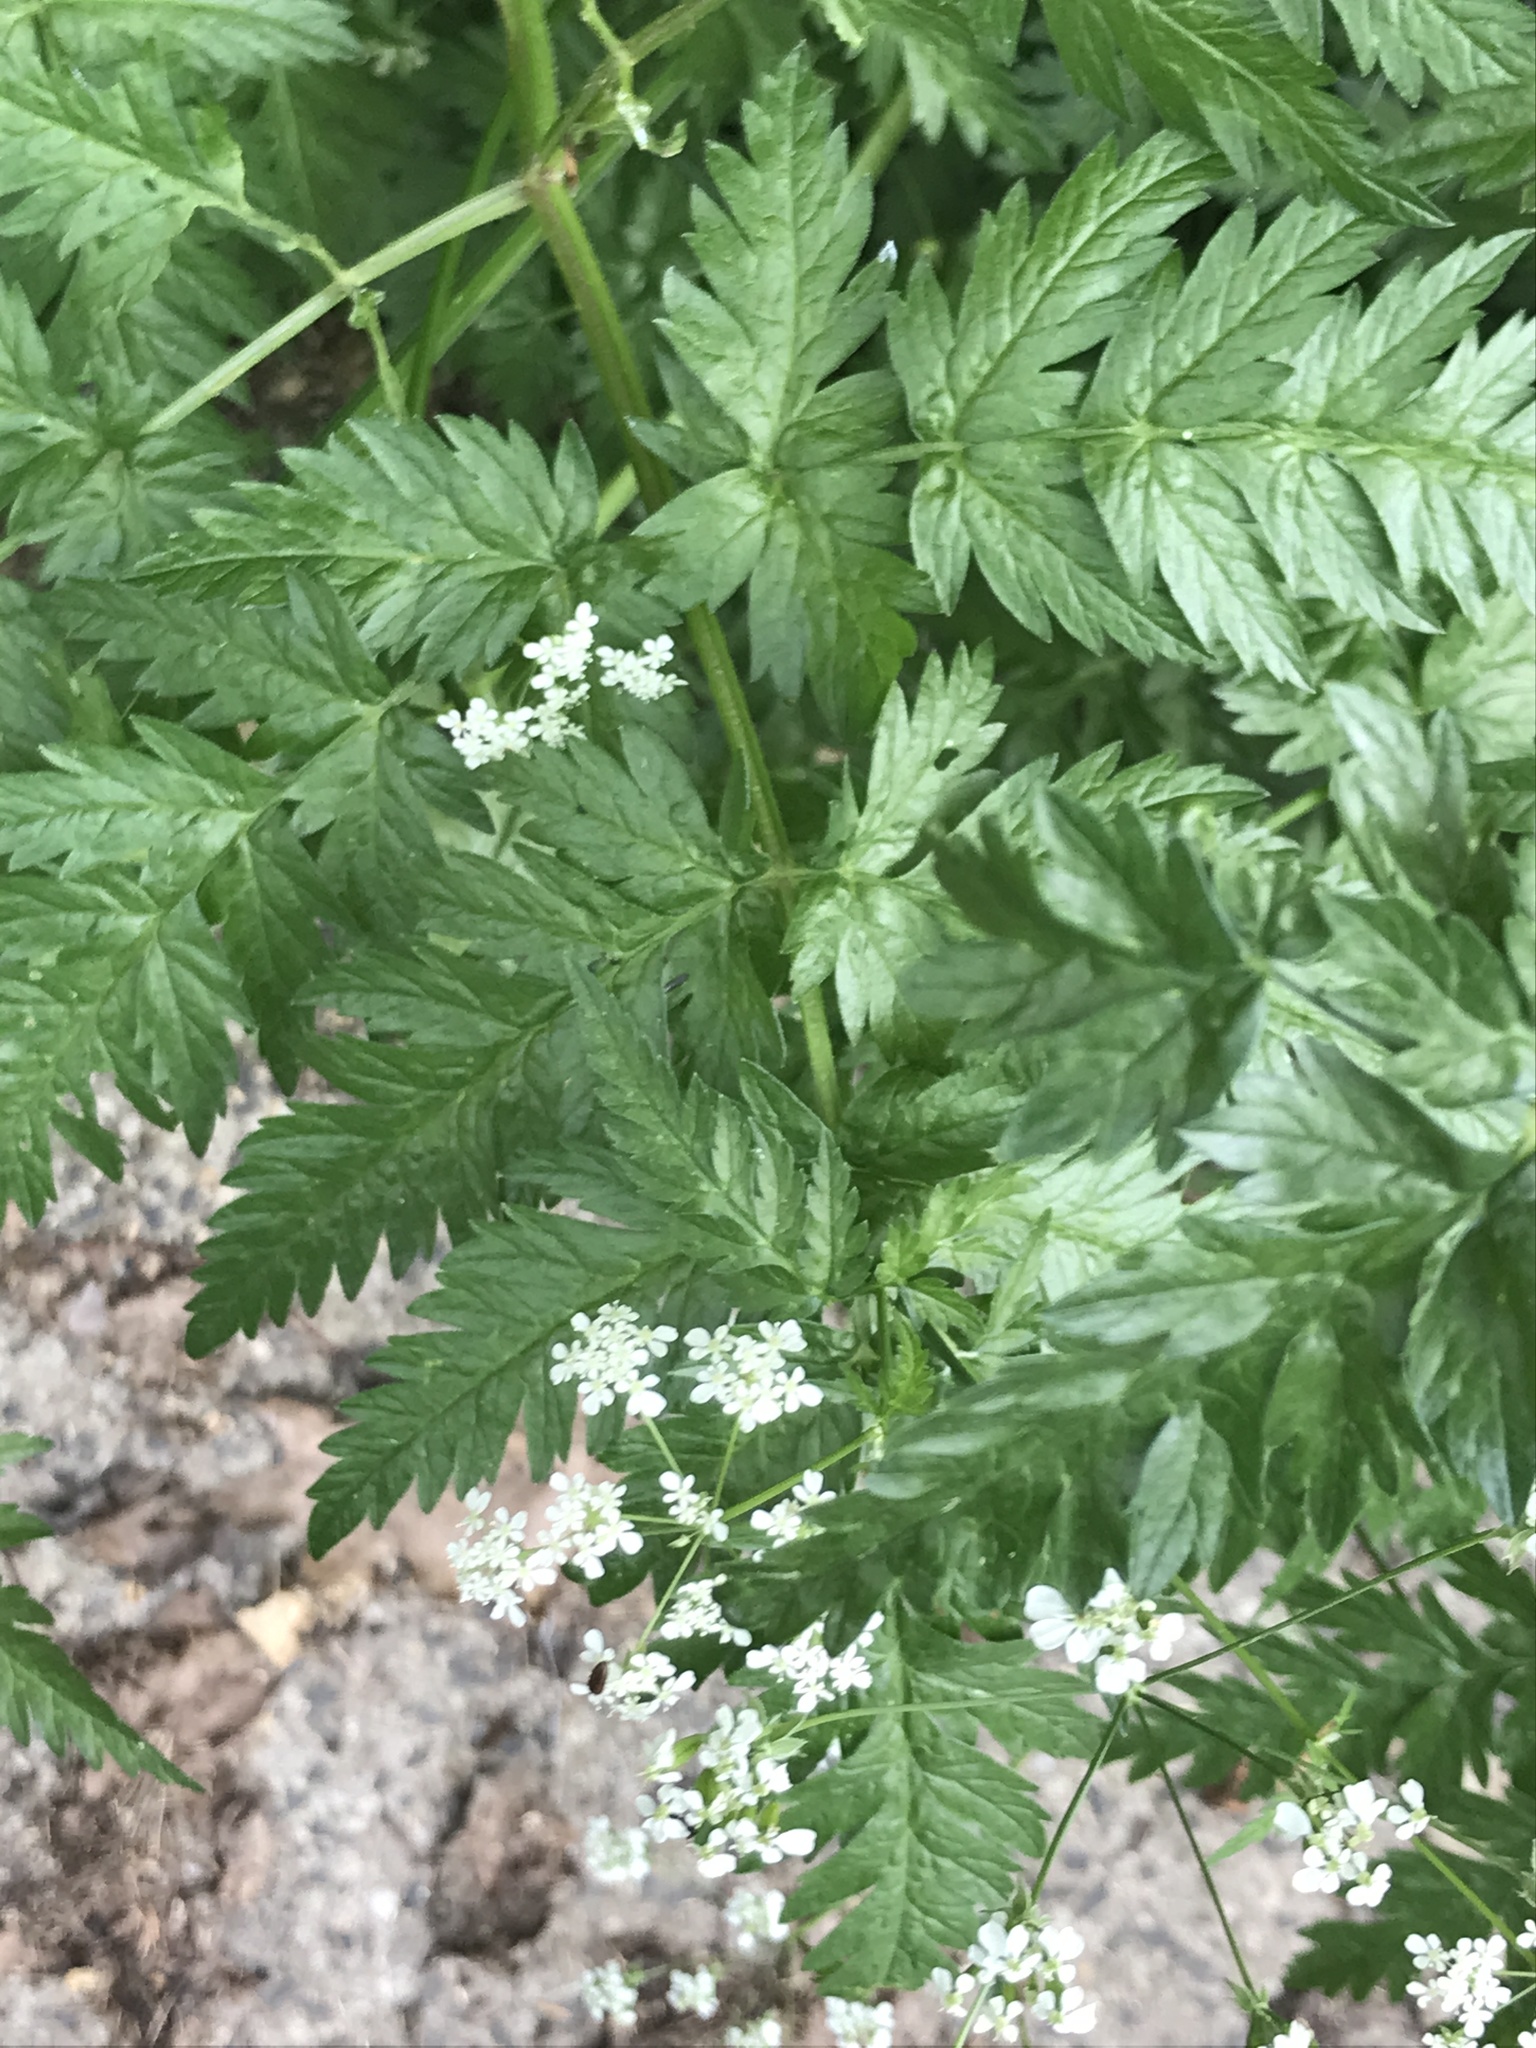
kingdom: Plantae
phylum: Tracheophyta
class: Magnoliopsida
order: Apiales
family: Apiaceae
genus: Anthriscus
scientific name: Anthriscus sylvestris
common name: Cow parsley
